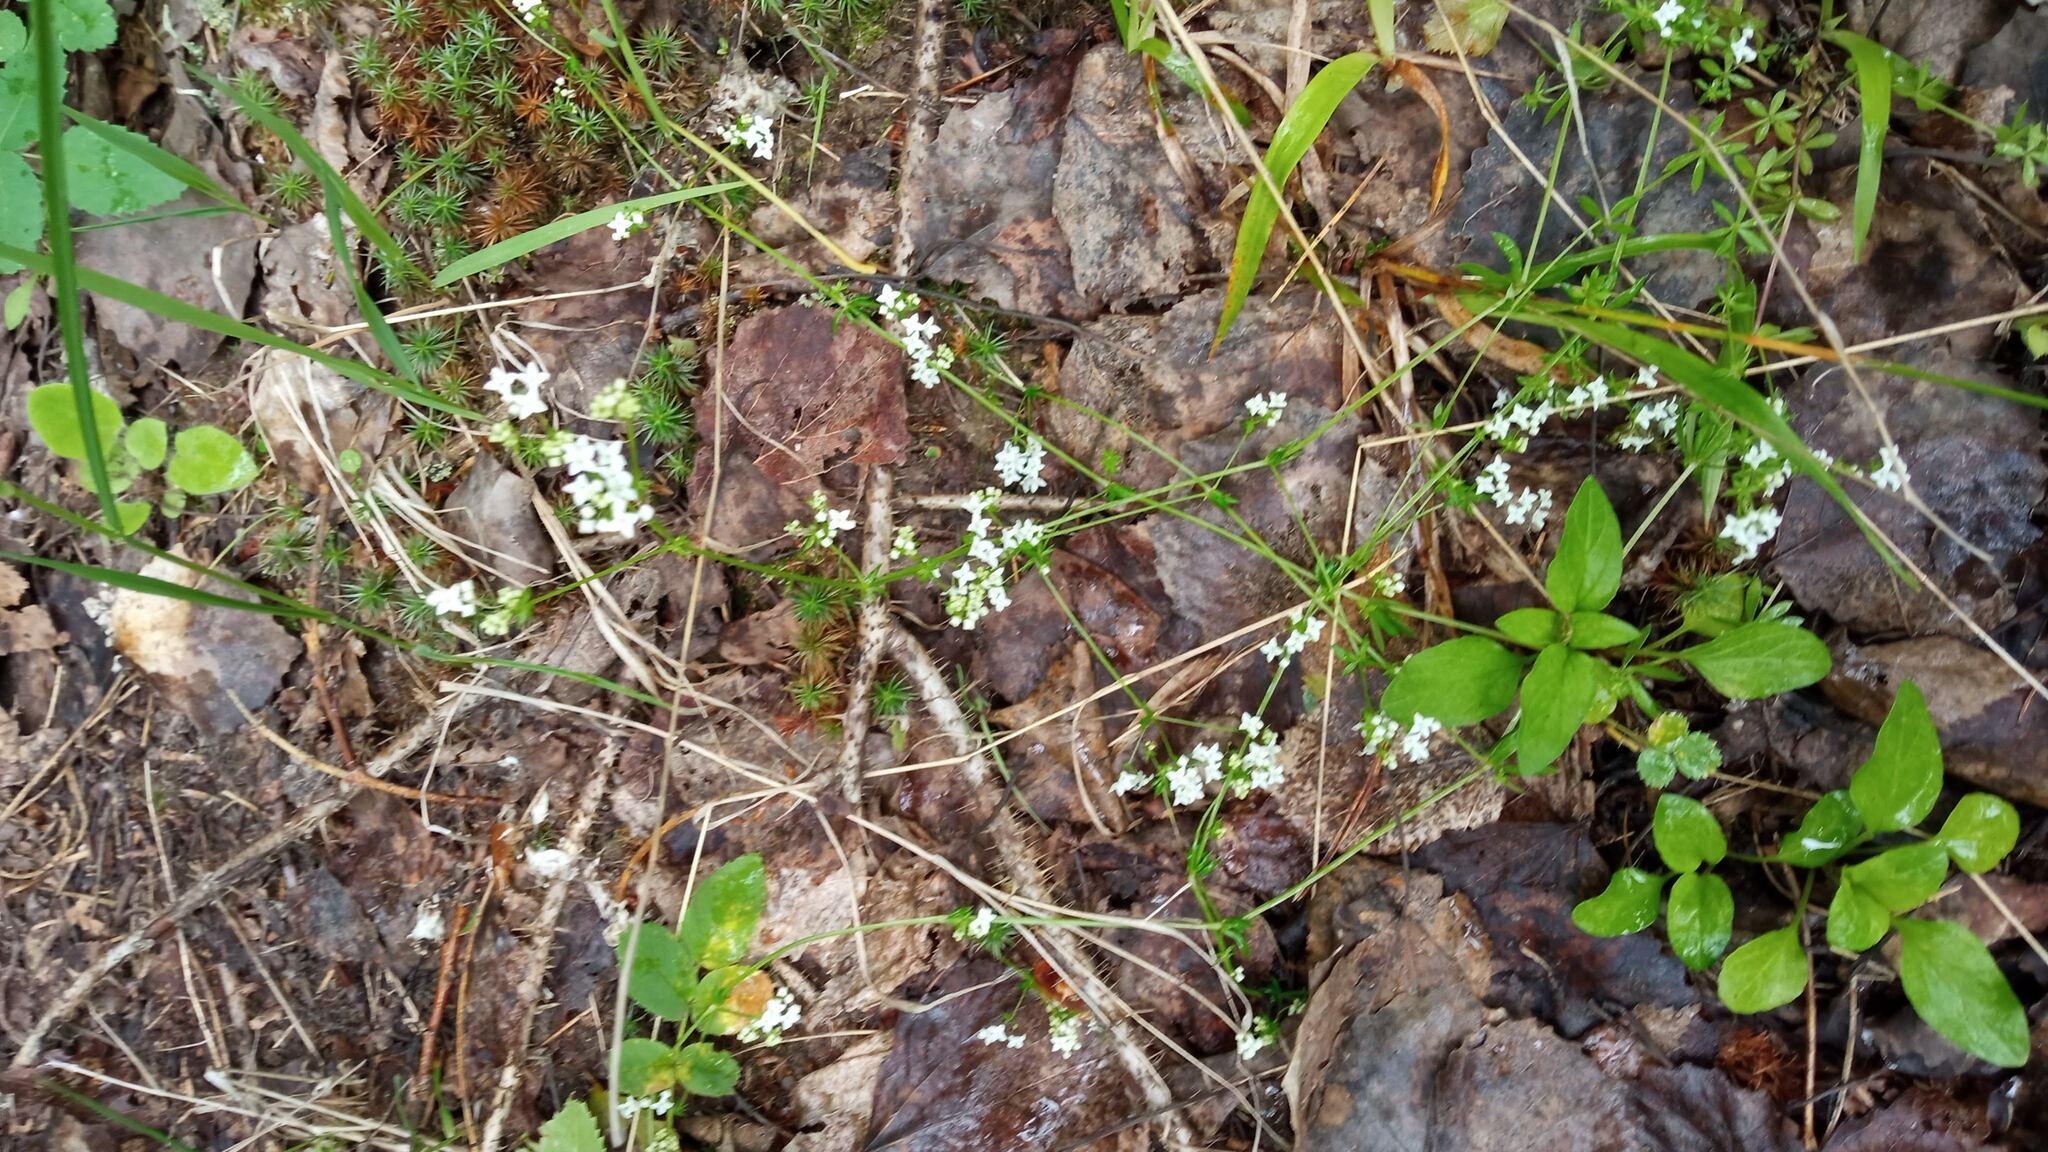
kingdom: Plantae
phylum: Tracheophyta
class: Magnoliopsida
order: Gentianales
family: Rubiaceae
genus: Galium
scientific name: Galium uliginosum
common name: Fen bedstraw
